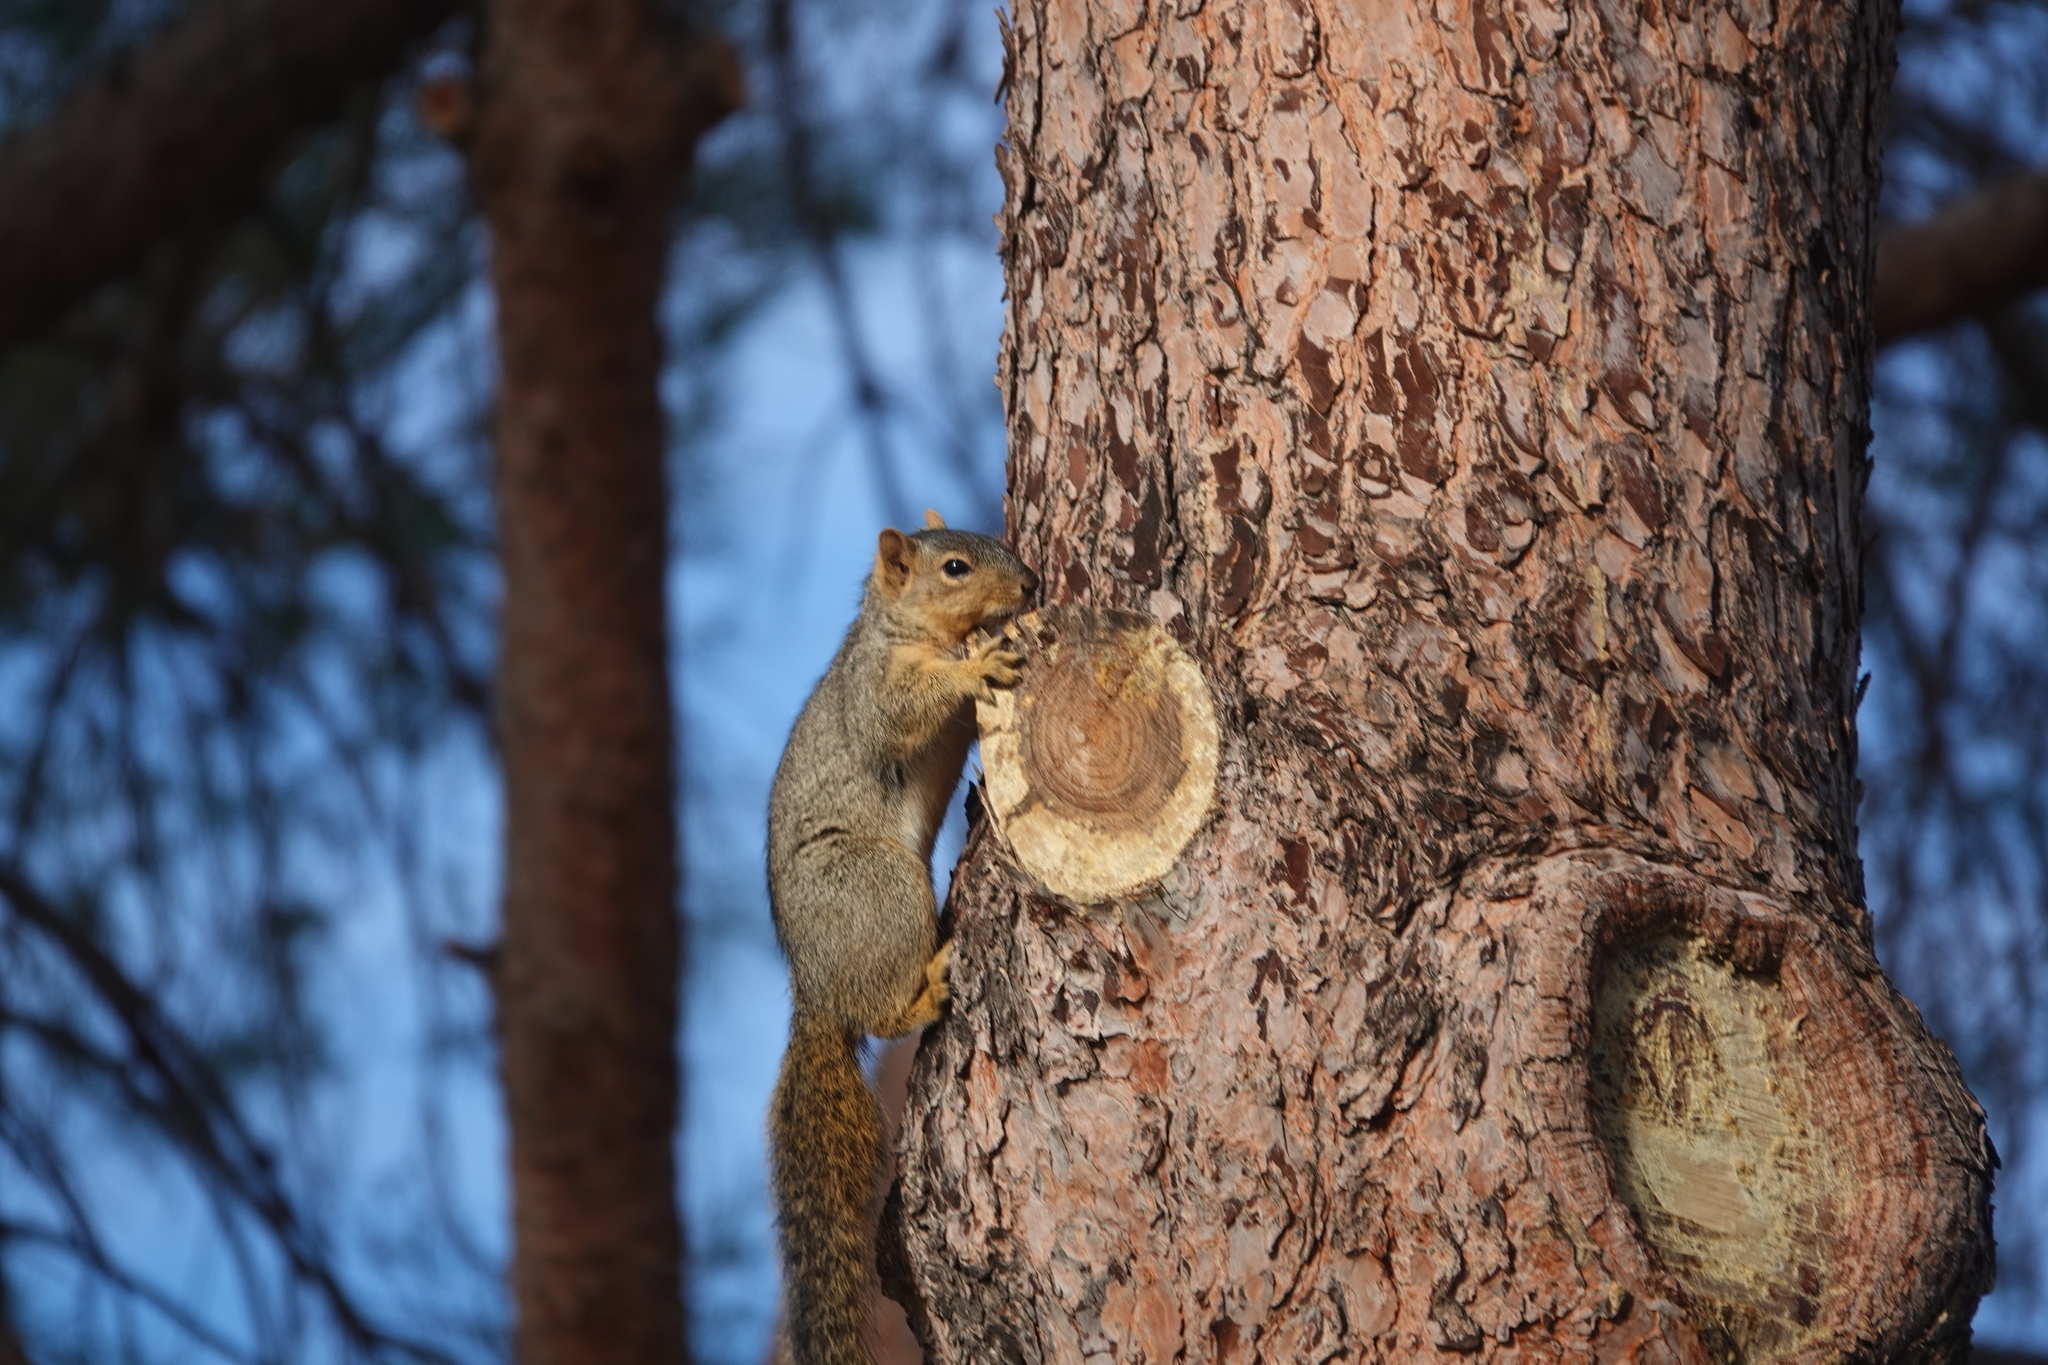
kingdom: Animalia
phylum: Chordata
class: Mammalia
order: Rodentia
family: Sciuridae
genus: Sciurus
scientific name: Sciurus niger
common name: Fox squirrel
